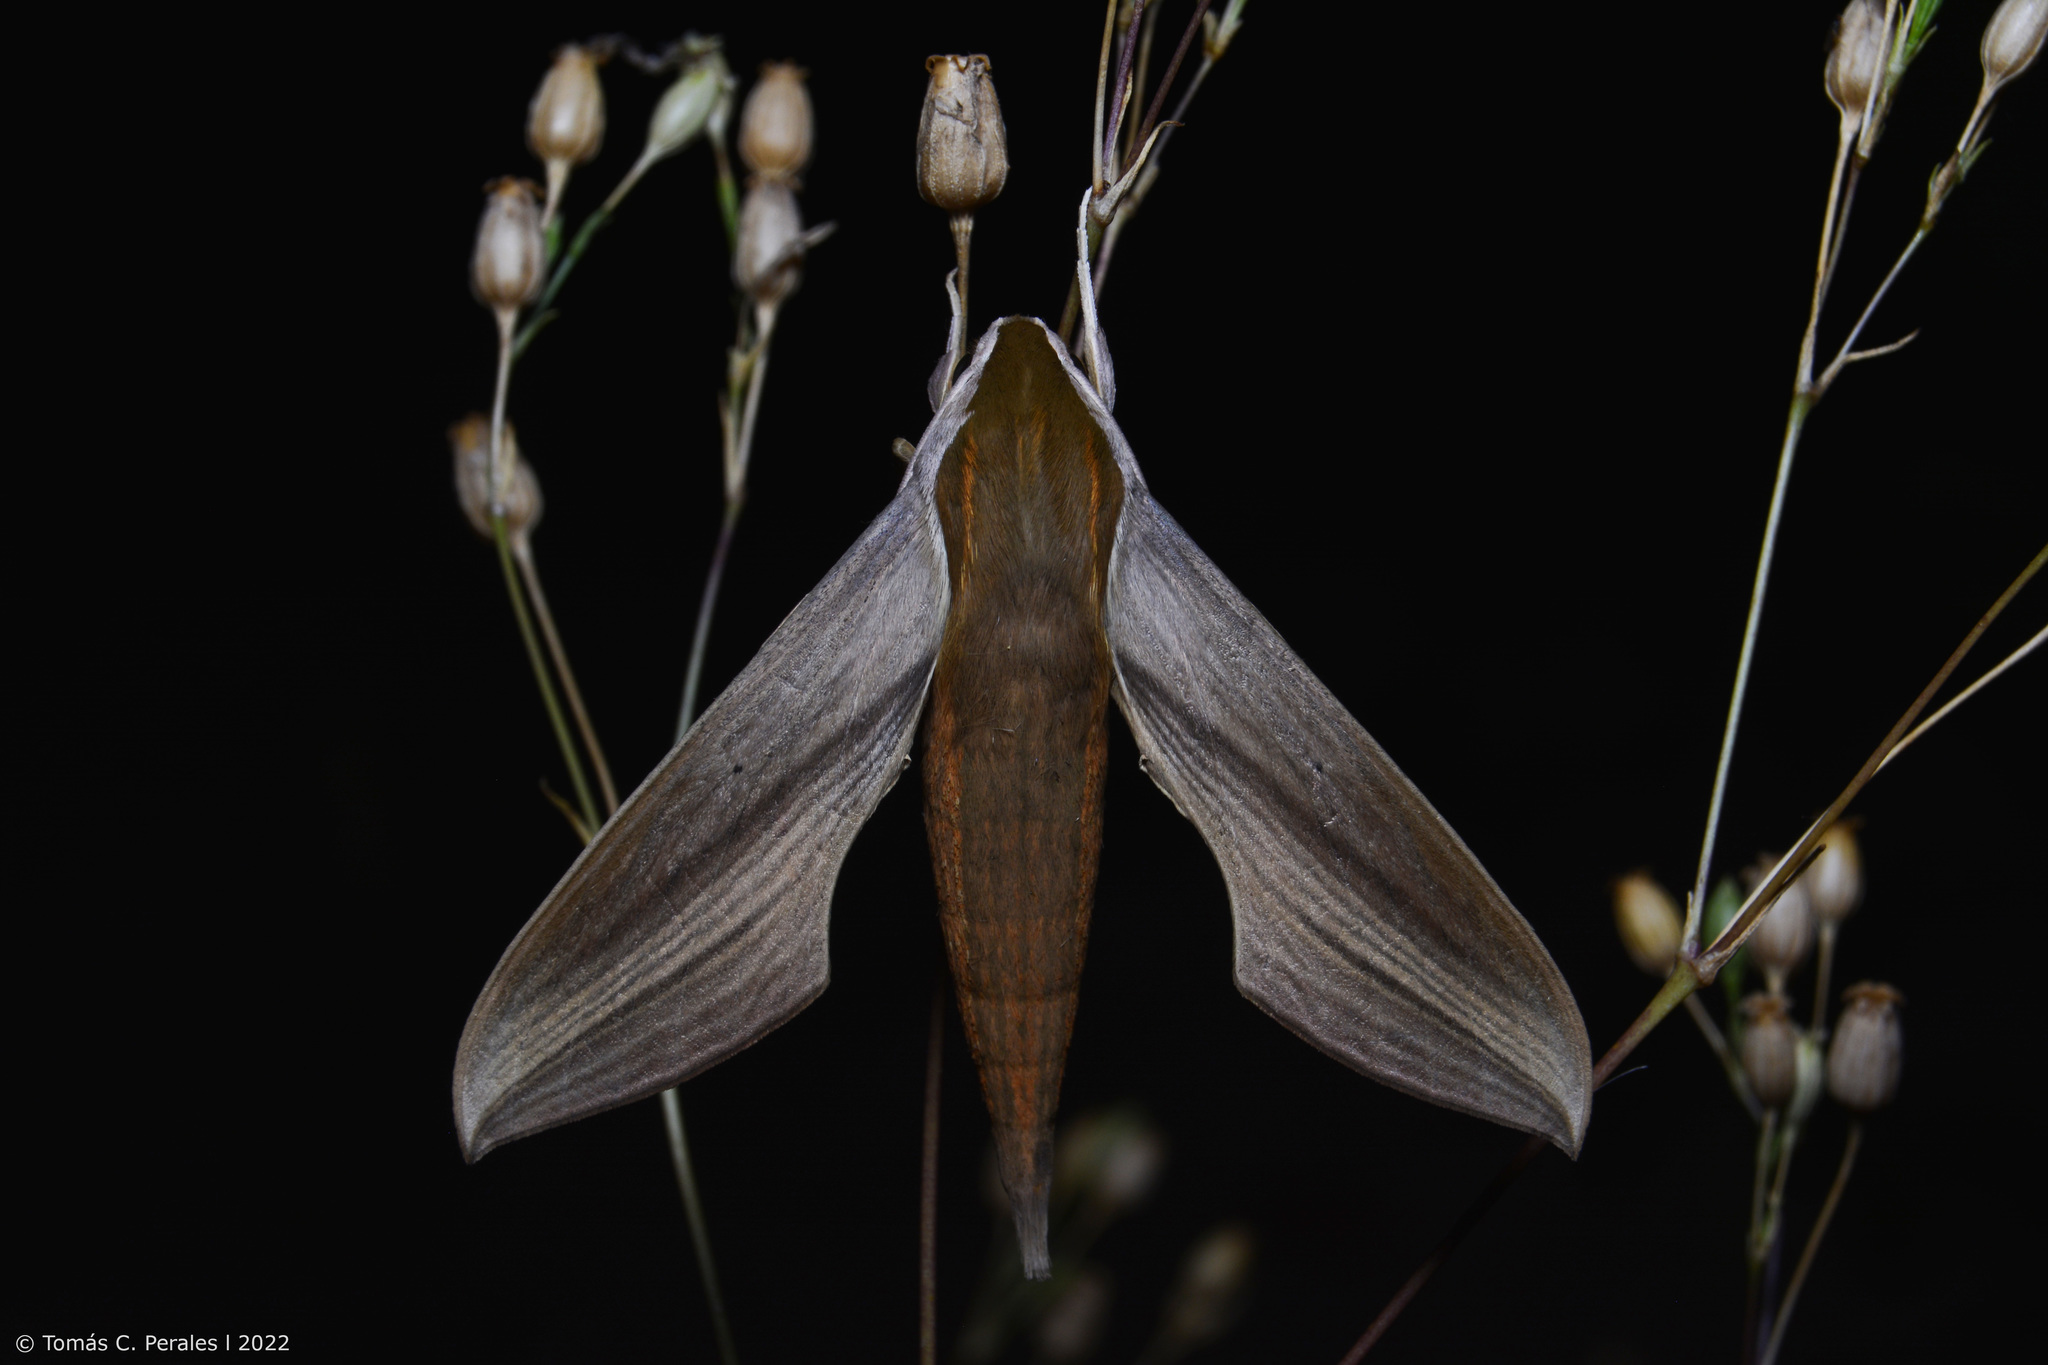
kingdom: Animalia
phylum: Arthropoda
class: Insecta
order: Lepidoptera
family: Sphingidae
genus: Xylophanes
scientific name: Xylophanes tersa
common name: Tersa sphinx
